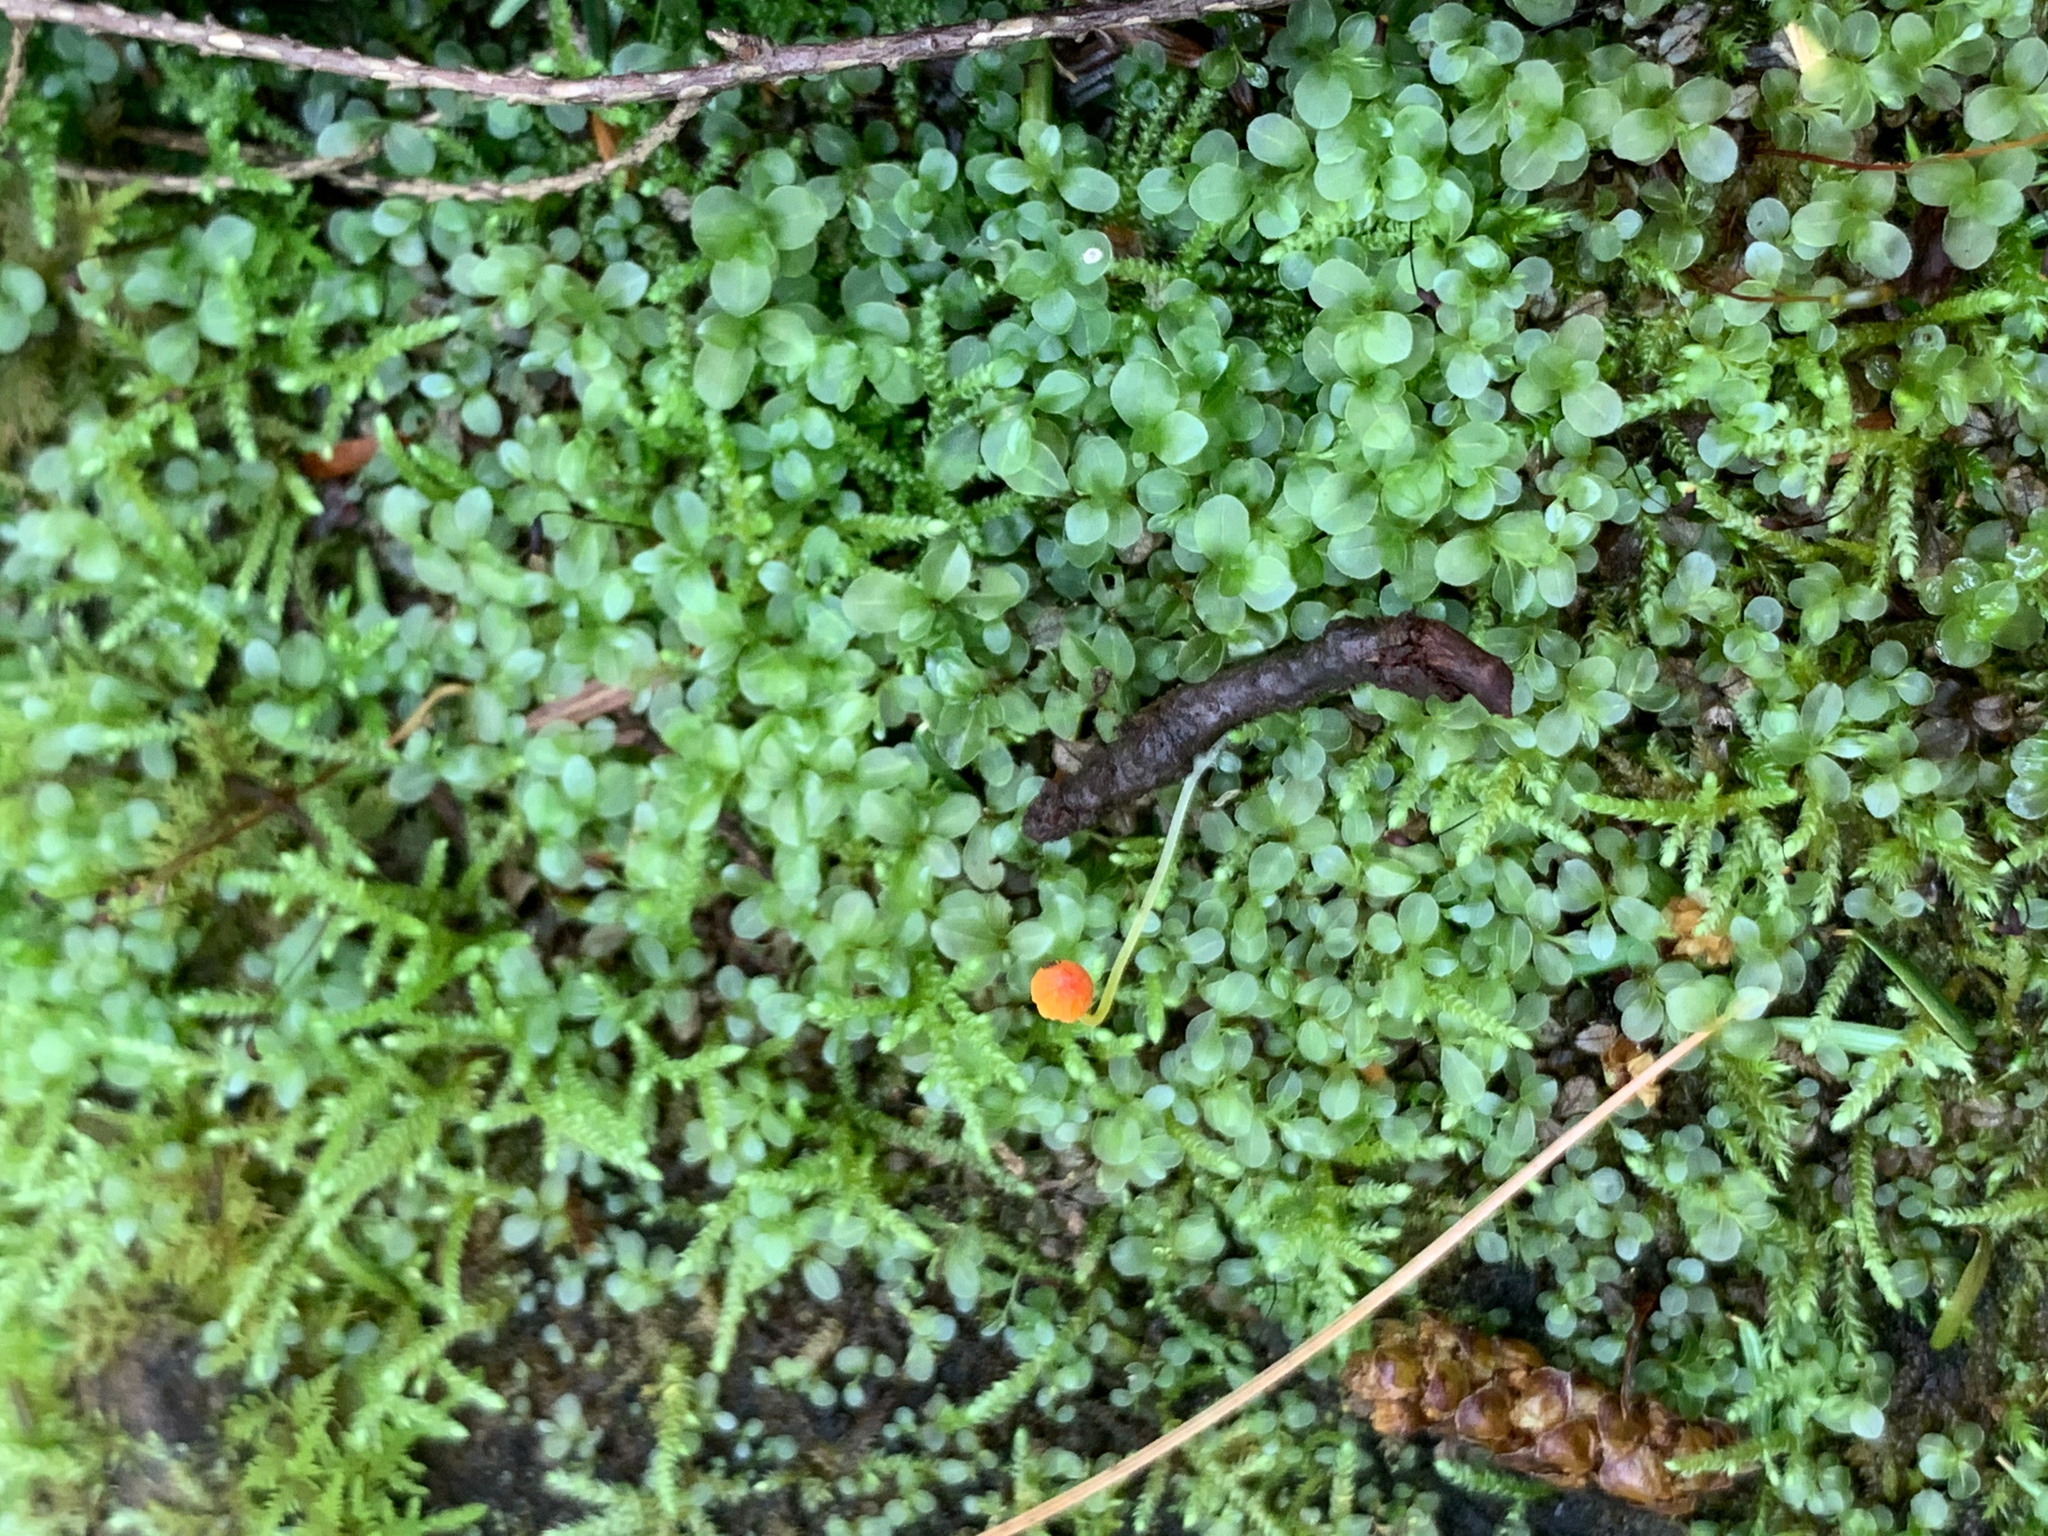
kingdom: Fungi
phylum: Basidiomycota
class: Agaricomycetes
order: Agaricales
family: Mycenaceae
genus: Mycena
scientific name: Mycena acicula
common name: Orange bonnet
